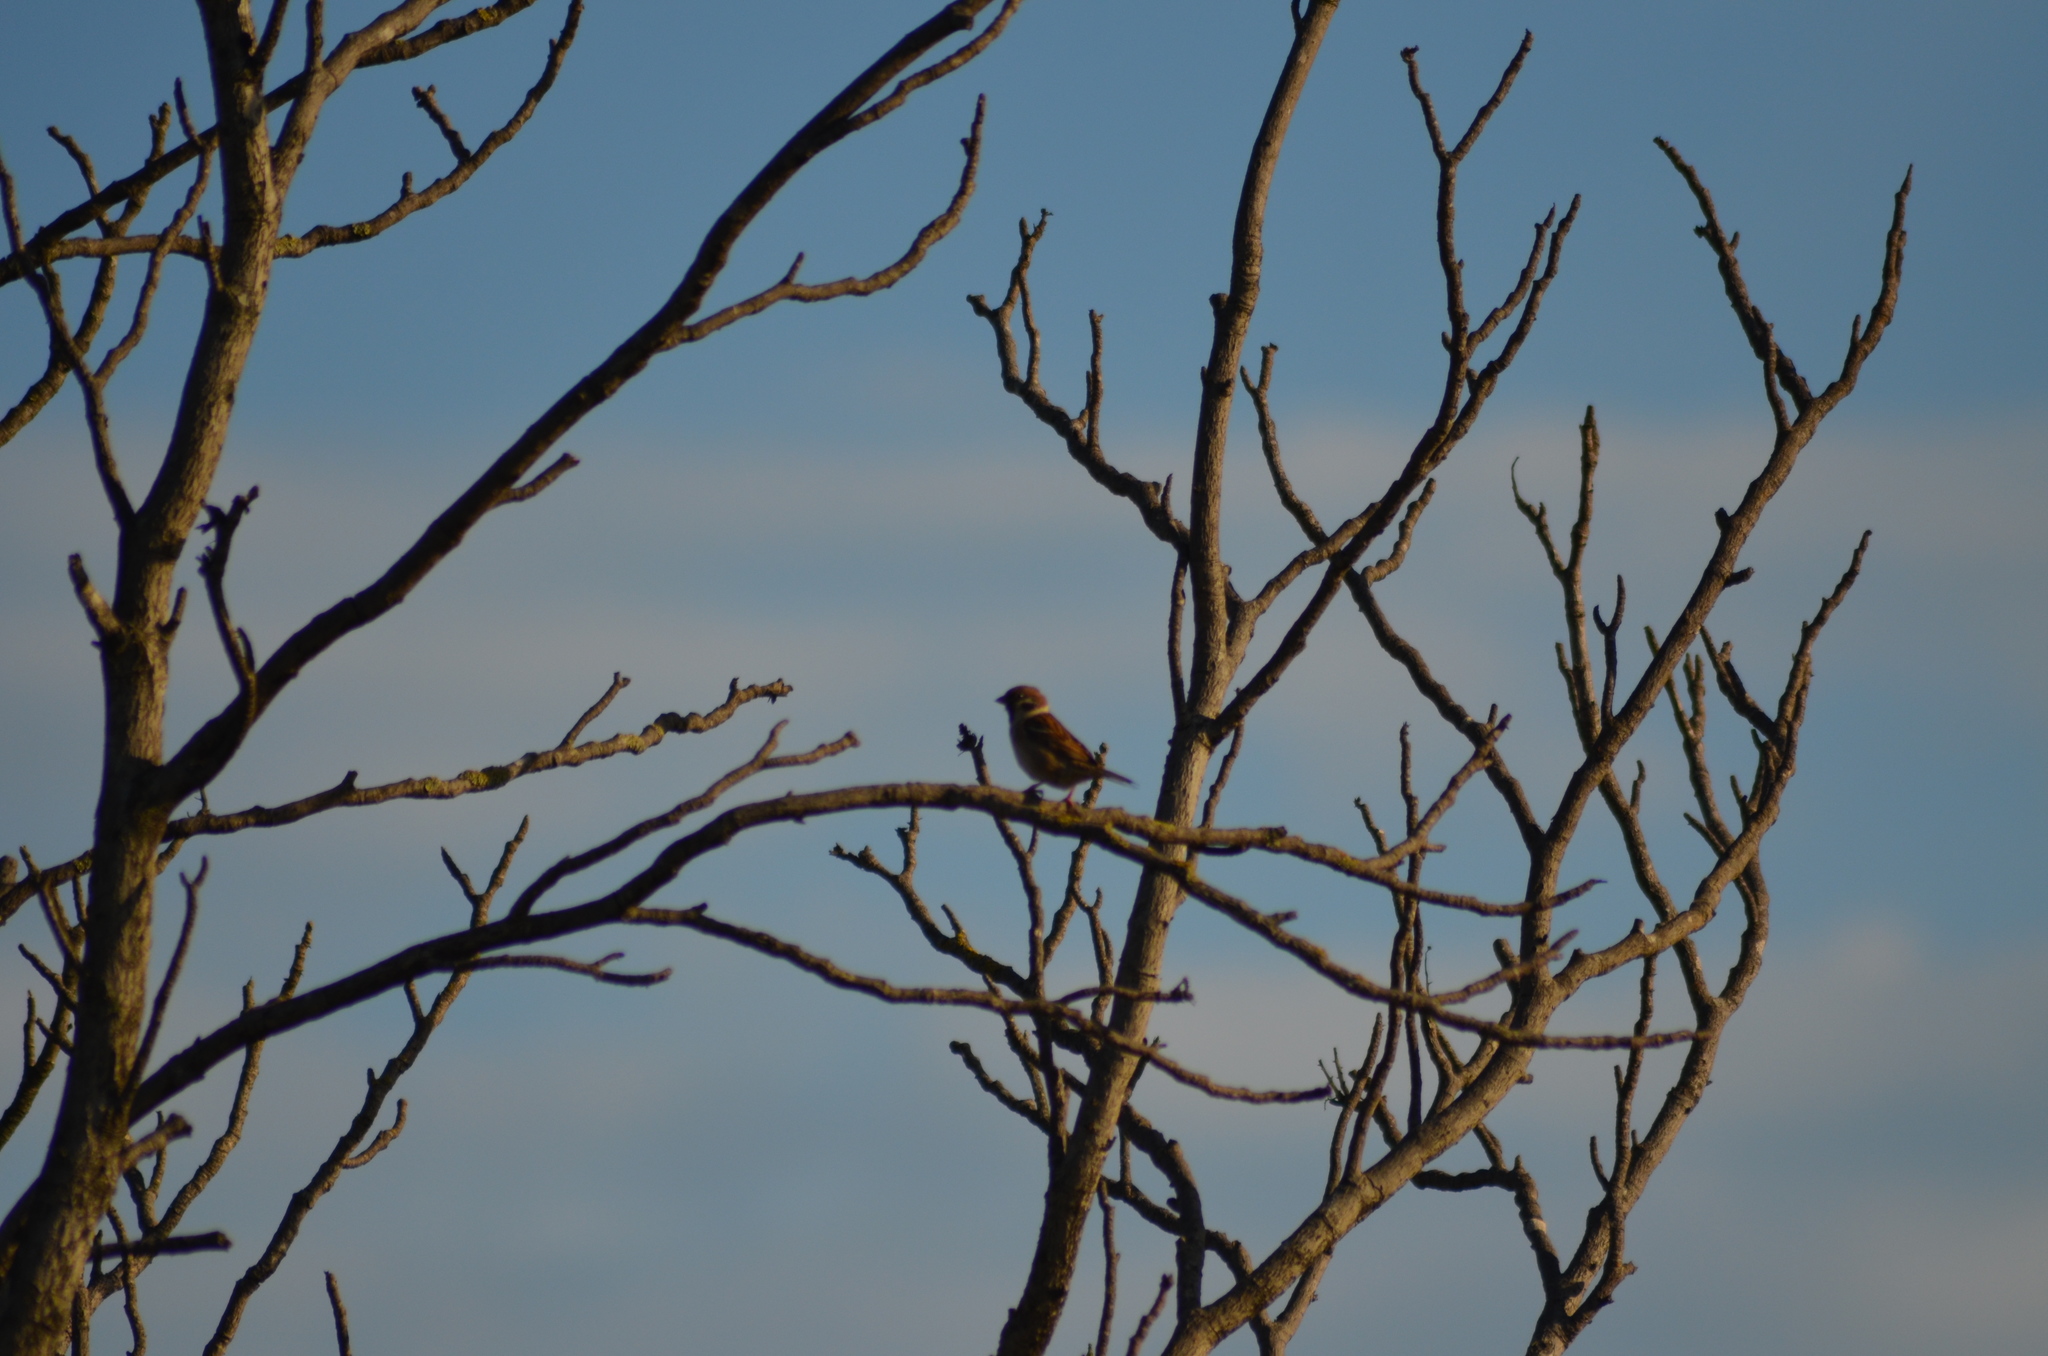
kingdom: Animalia
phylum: Chordata
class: Aves
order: Passeriformes
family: Passeridae
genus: Passer
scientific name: Passer montanus
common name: Eurasian tree sparrow
